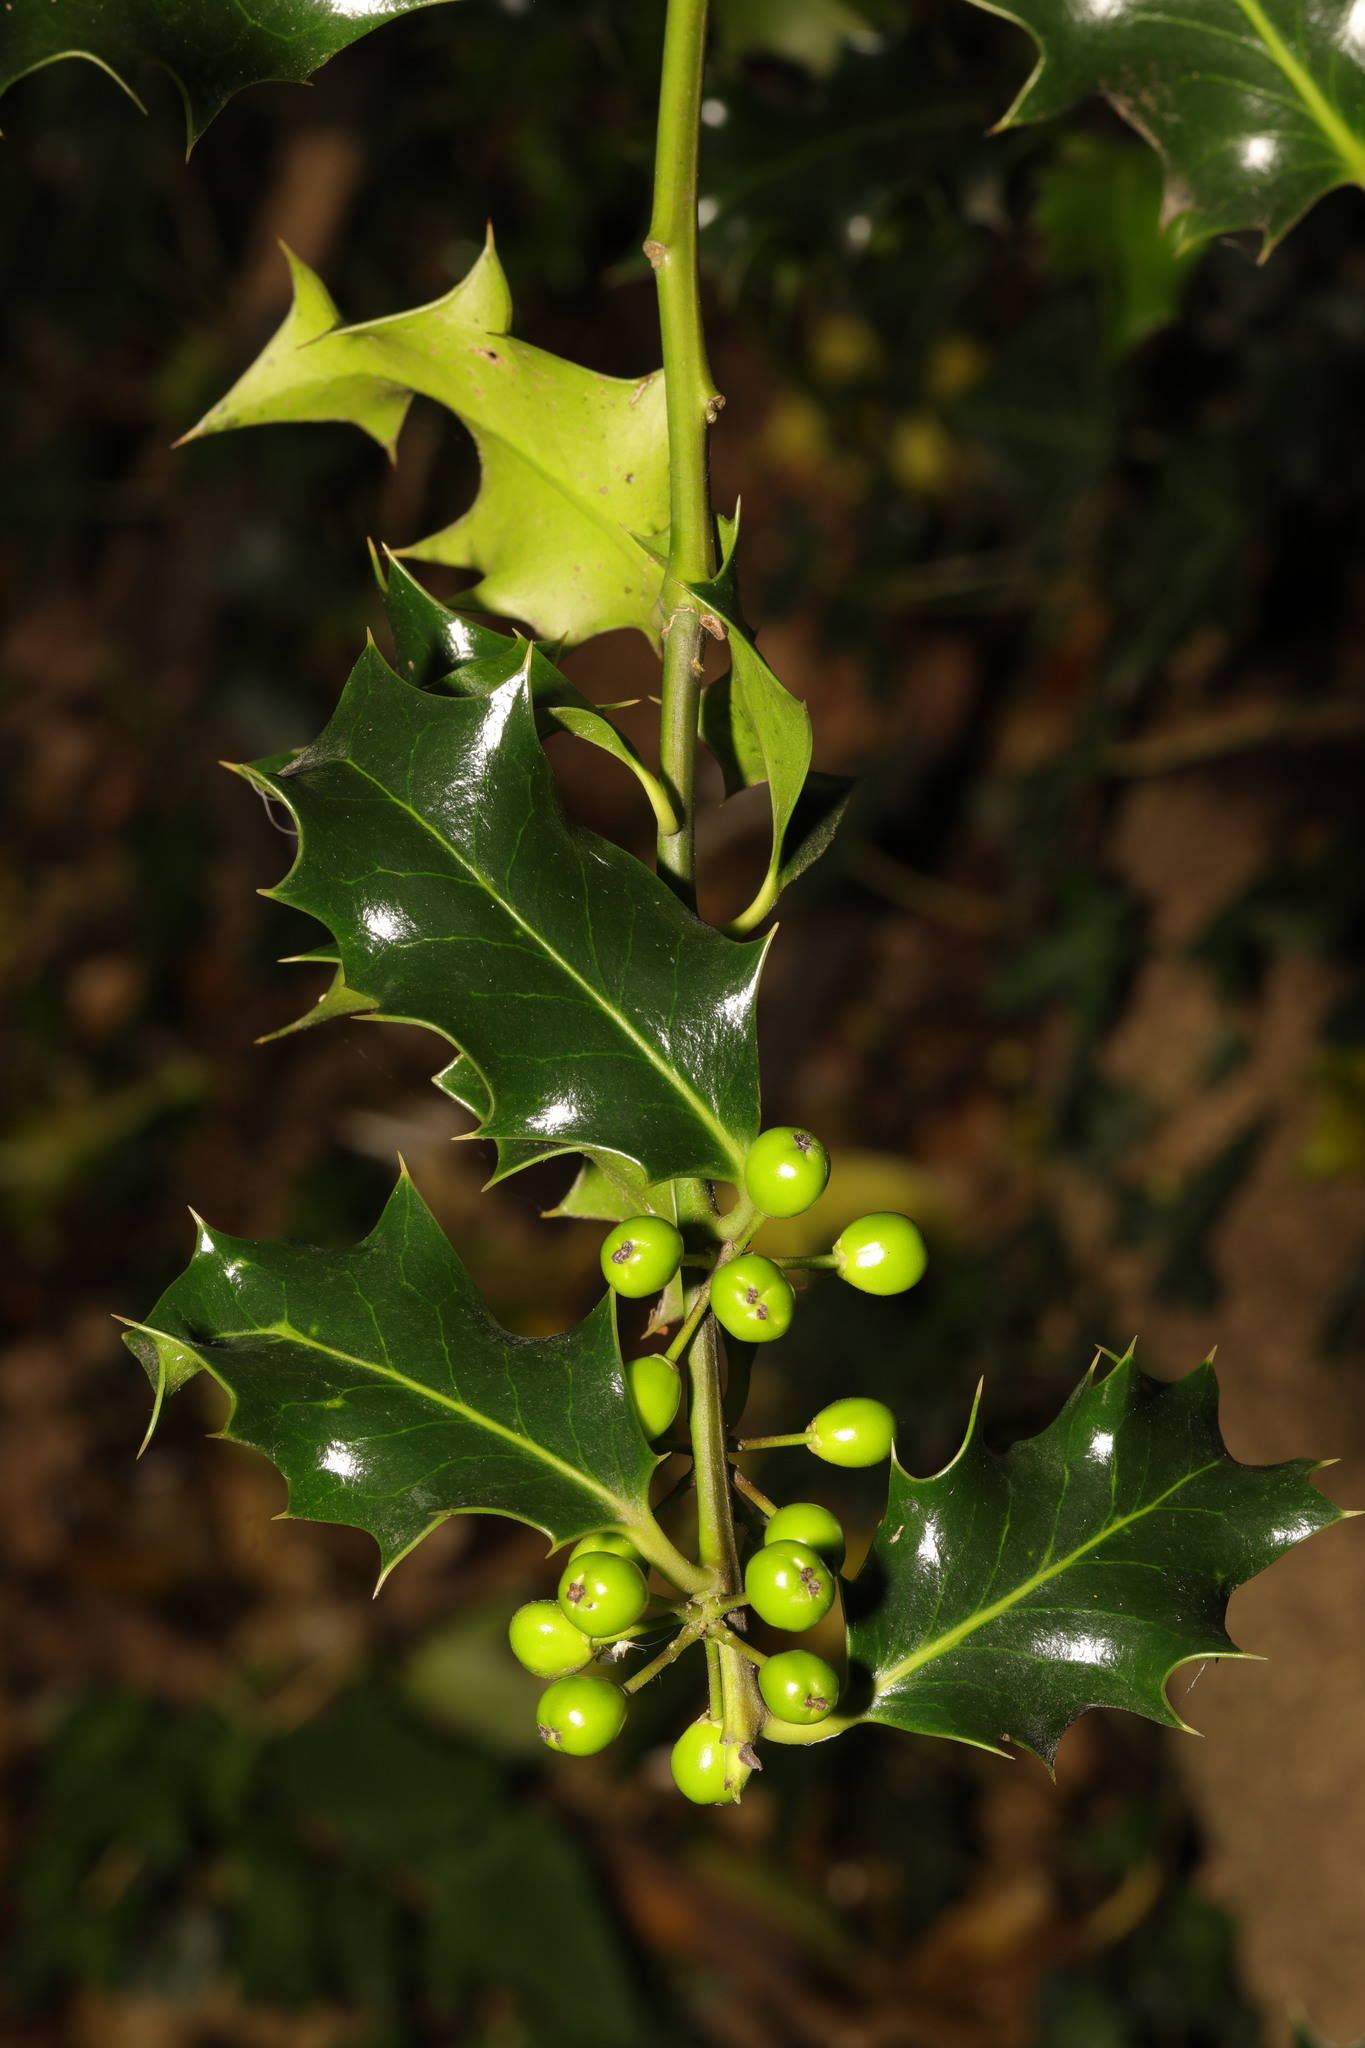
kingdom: Plantae
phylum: Tracheophyta
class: Magnoliopsida
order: Aquifoliales
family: Aquifoliaceae
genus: Ilex
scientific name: Ilex aquifolium
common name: English holly
